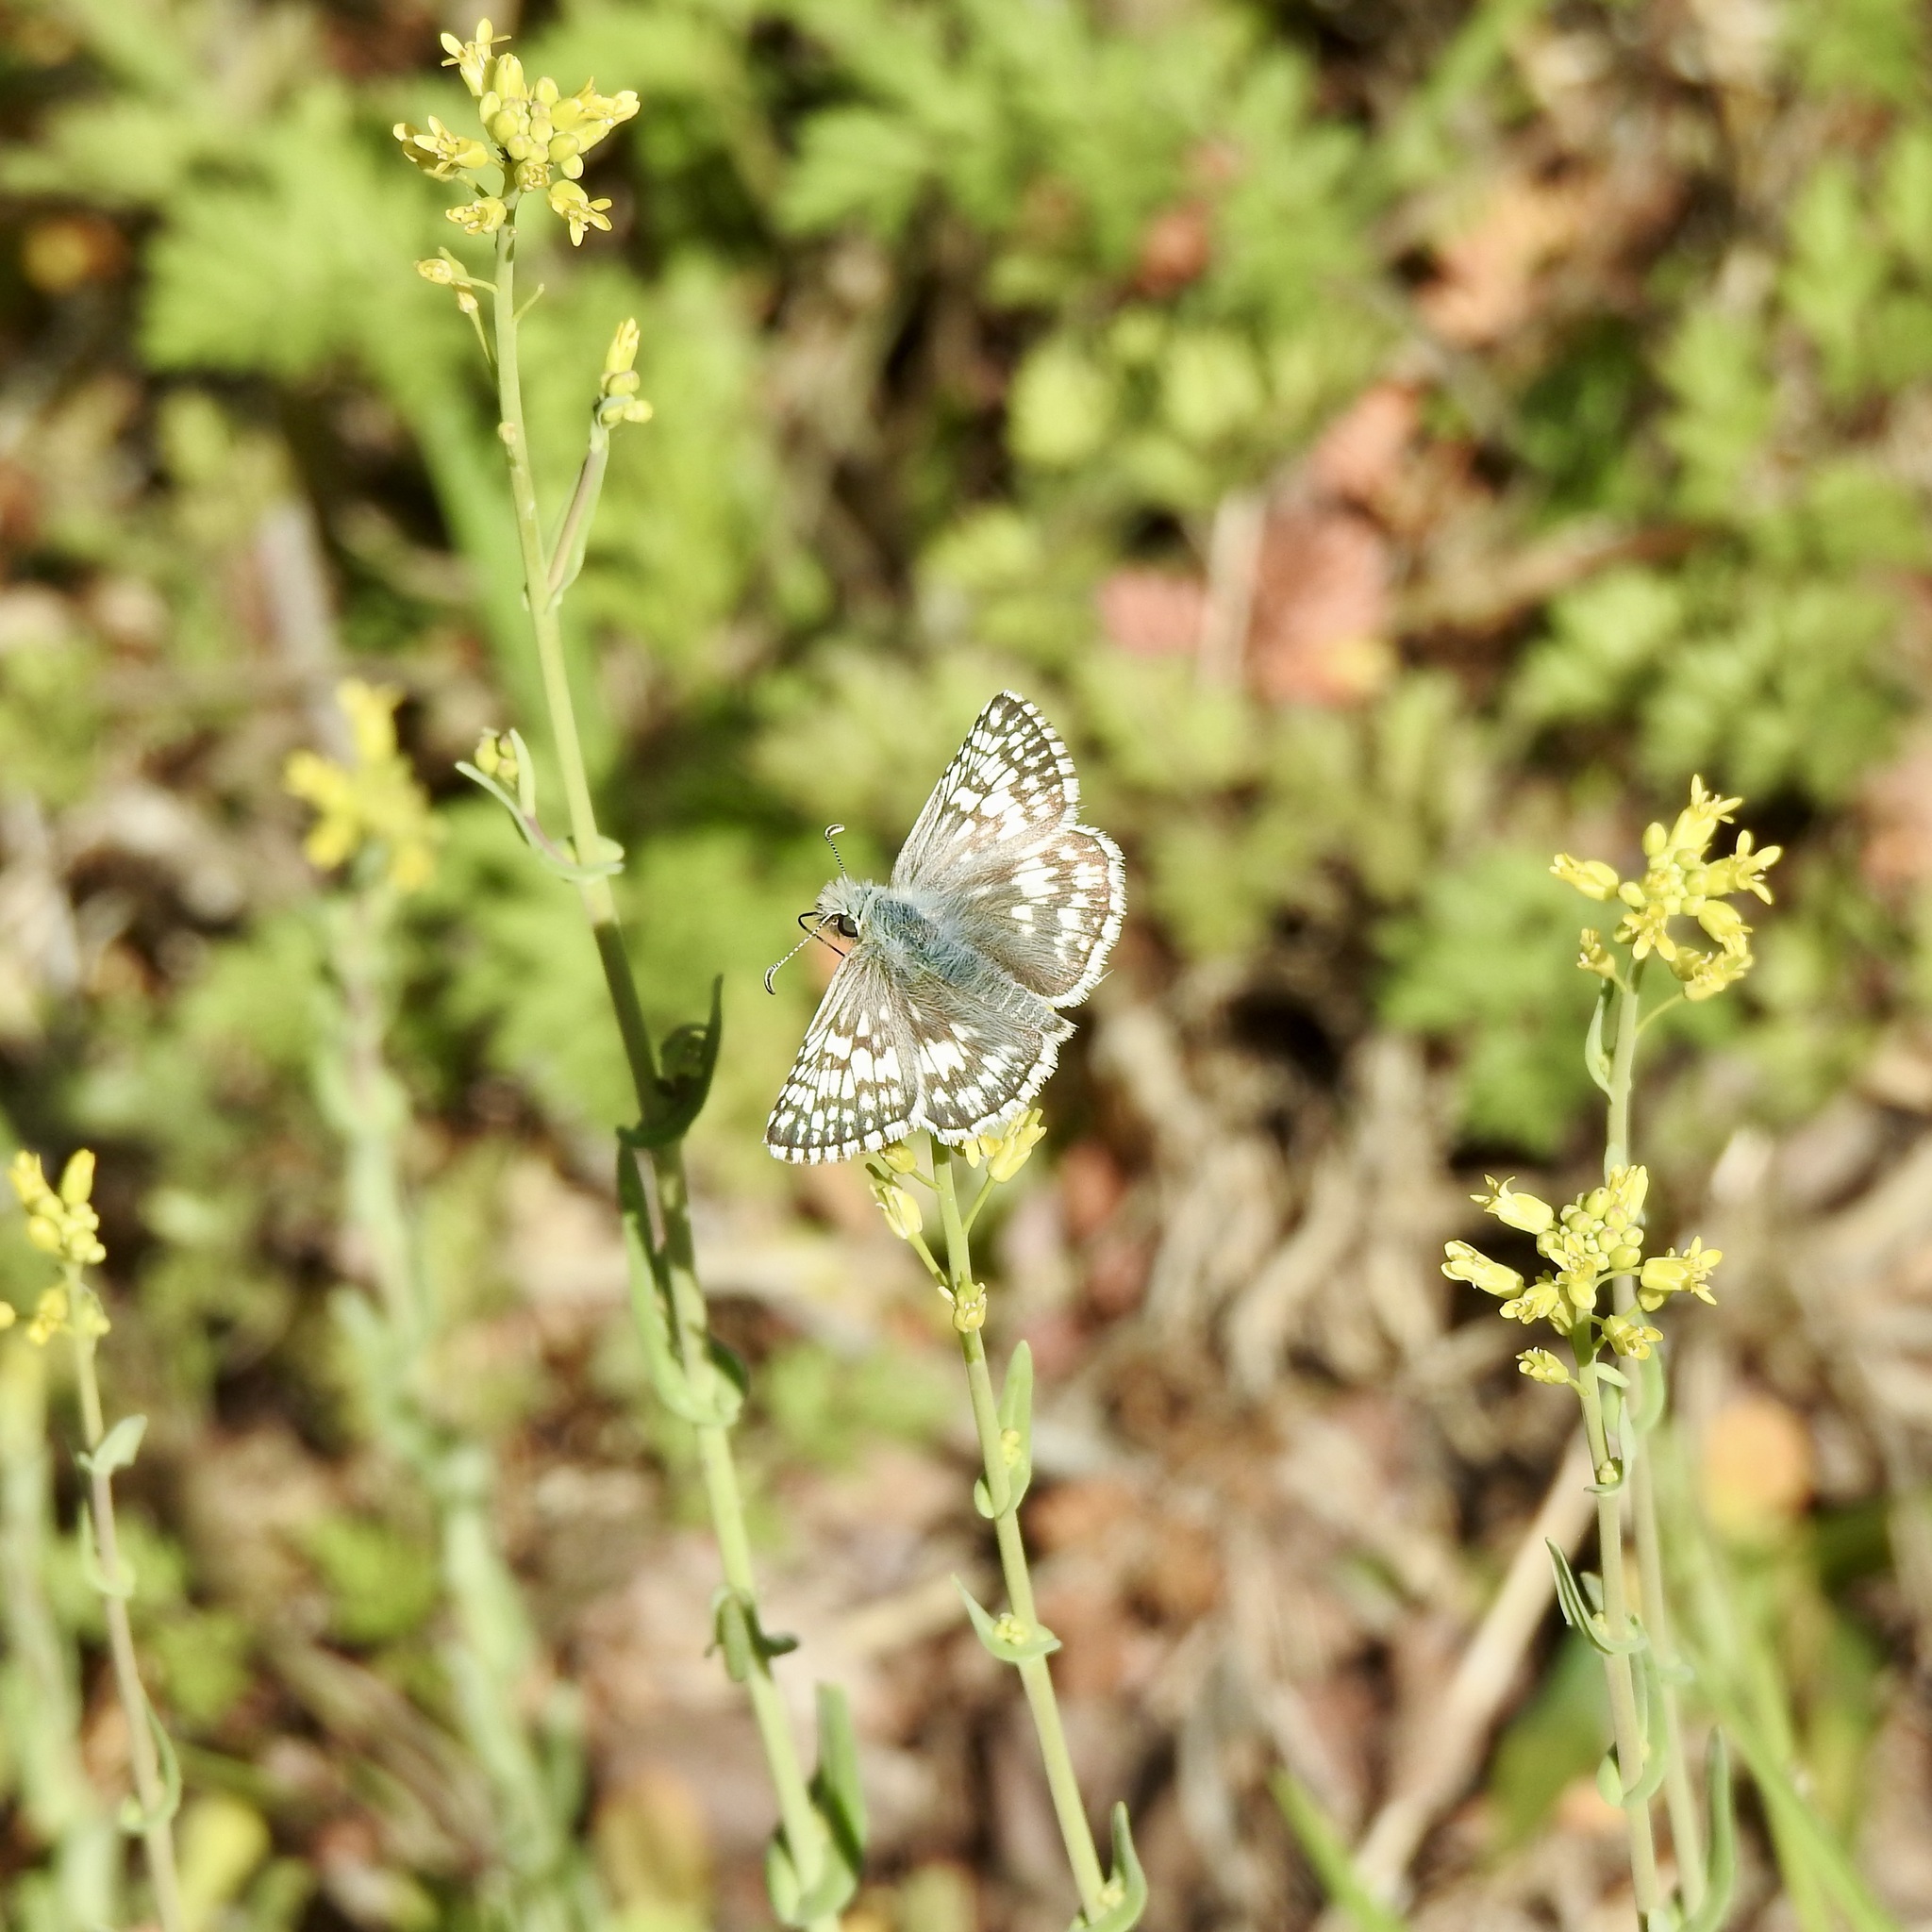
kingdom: Animalia
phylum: Arthropoda
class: Insecta
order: Lepidoptera
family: Hesperiidae
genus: Burnsius
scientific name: Burnsius philetas
